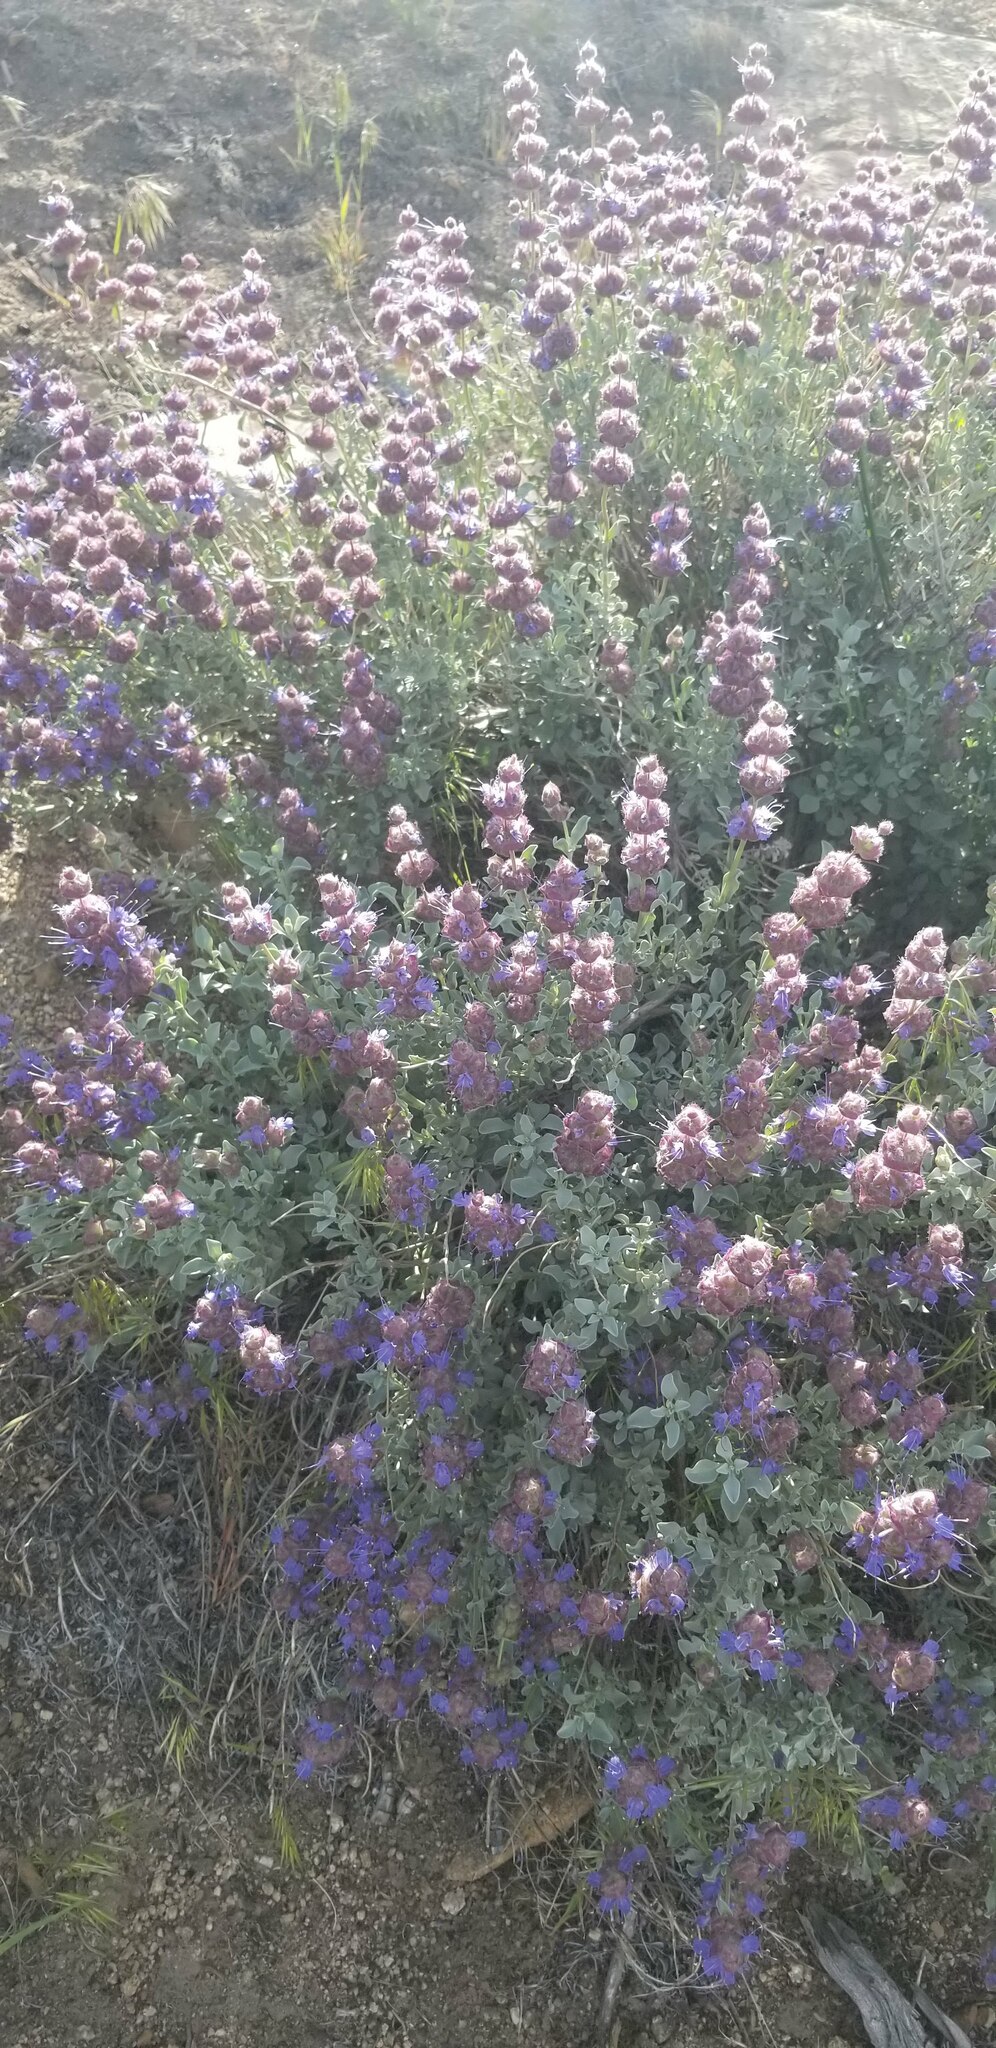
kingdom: Plantae
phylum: Tracheophyta
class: Magnoliopsida
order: Lamiales
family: Lamiaceae
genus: Salvia
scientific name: Salvia dorrii
